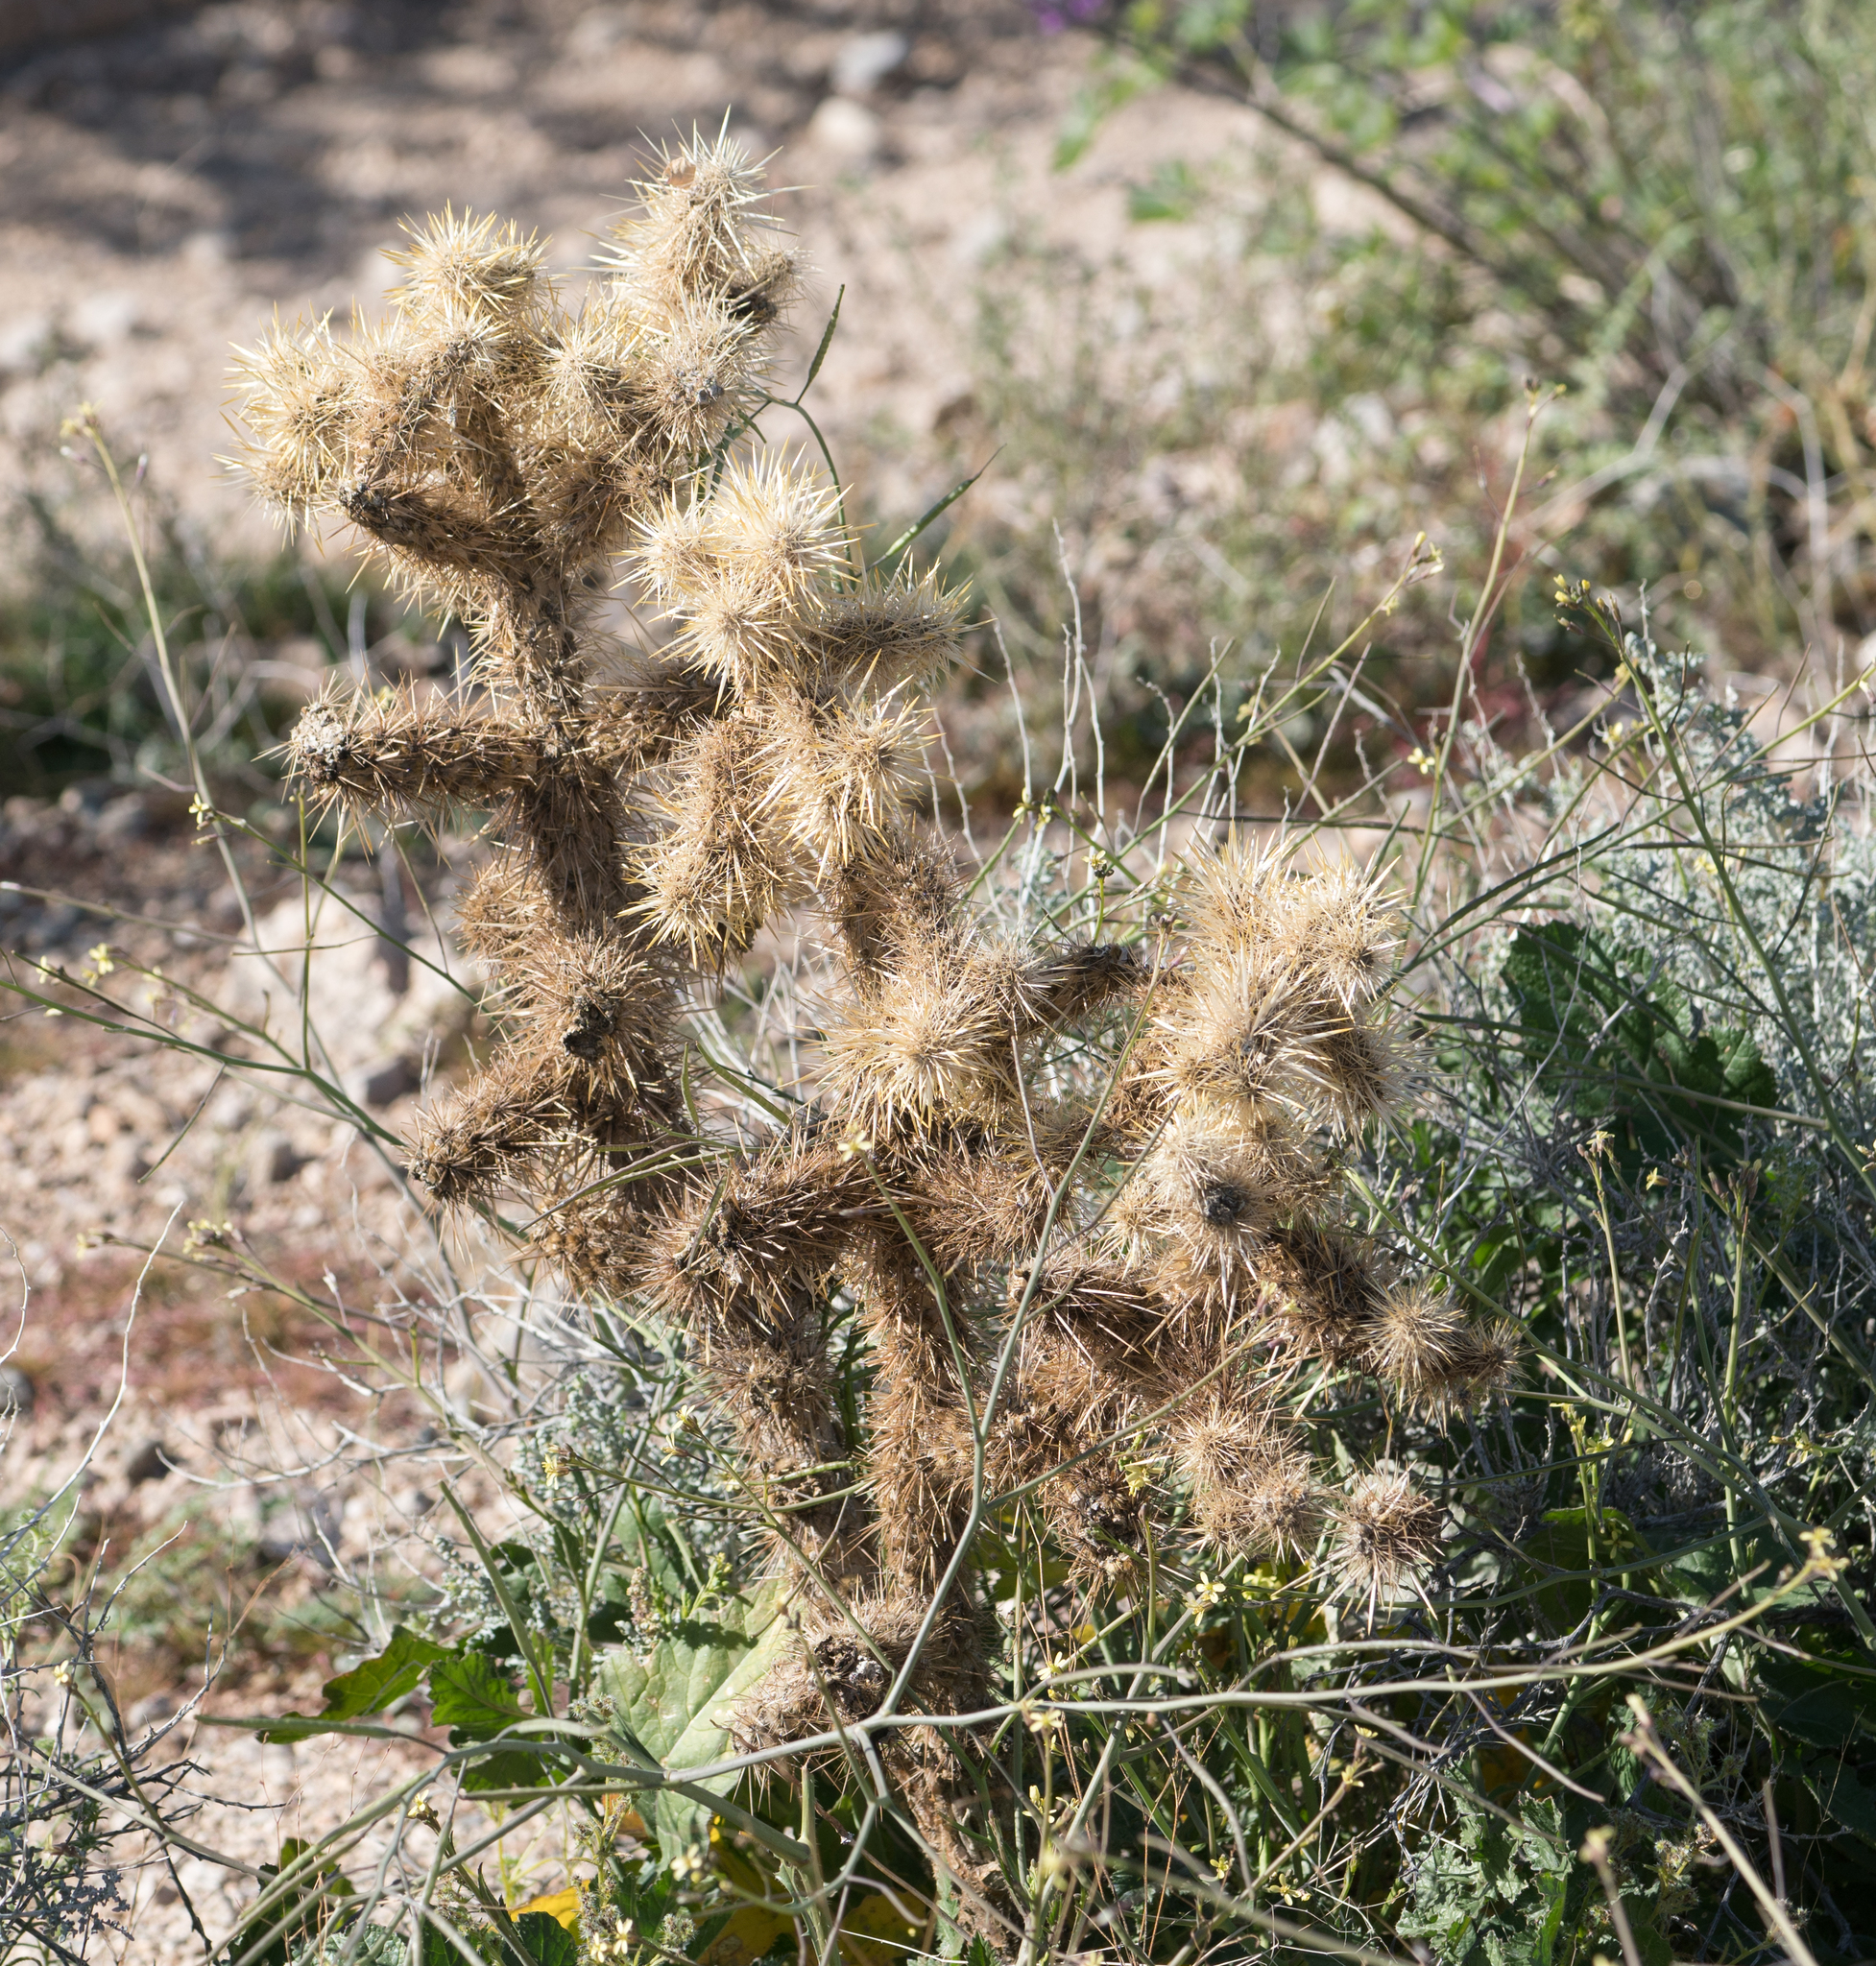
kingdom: Plantae
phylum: Tracheophyta
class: Magnoliopsida
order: Caryophyllales
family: Cactaceae
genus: Cylindropuntia
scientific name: Cylindropuntia echinocarpa
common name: Ground cholla
